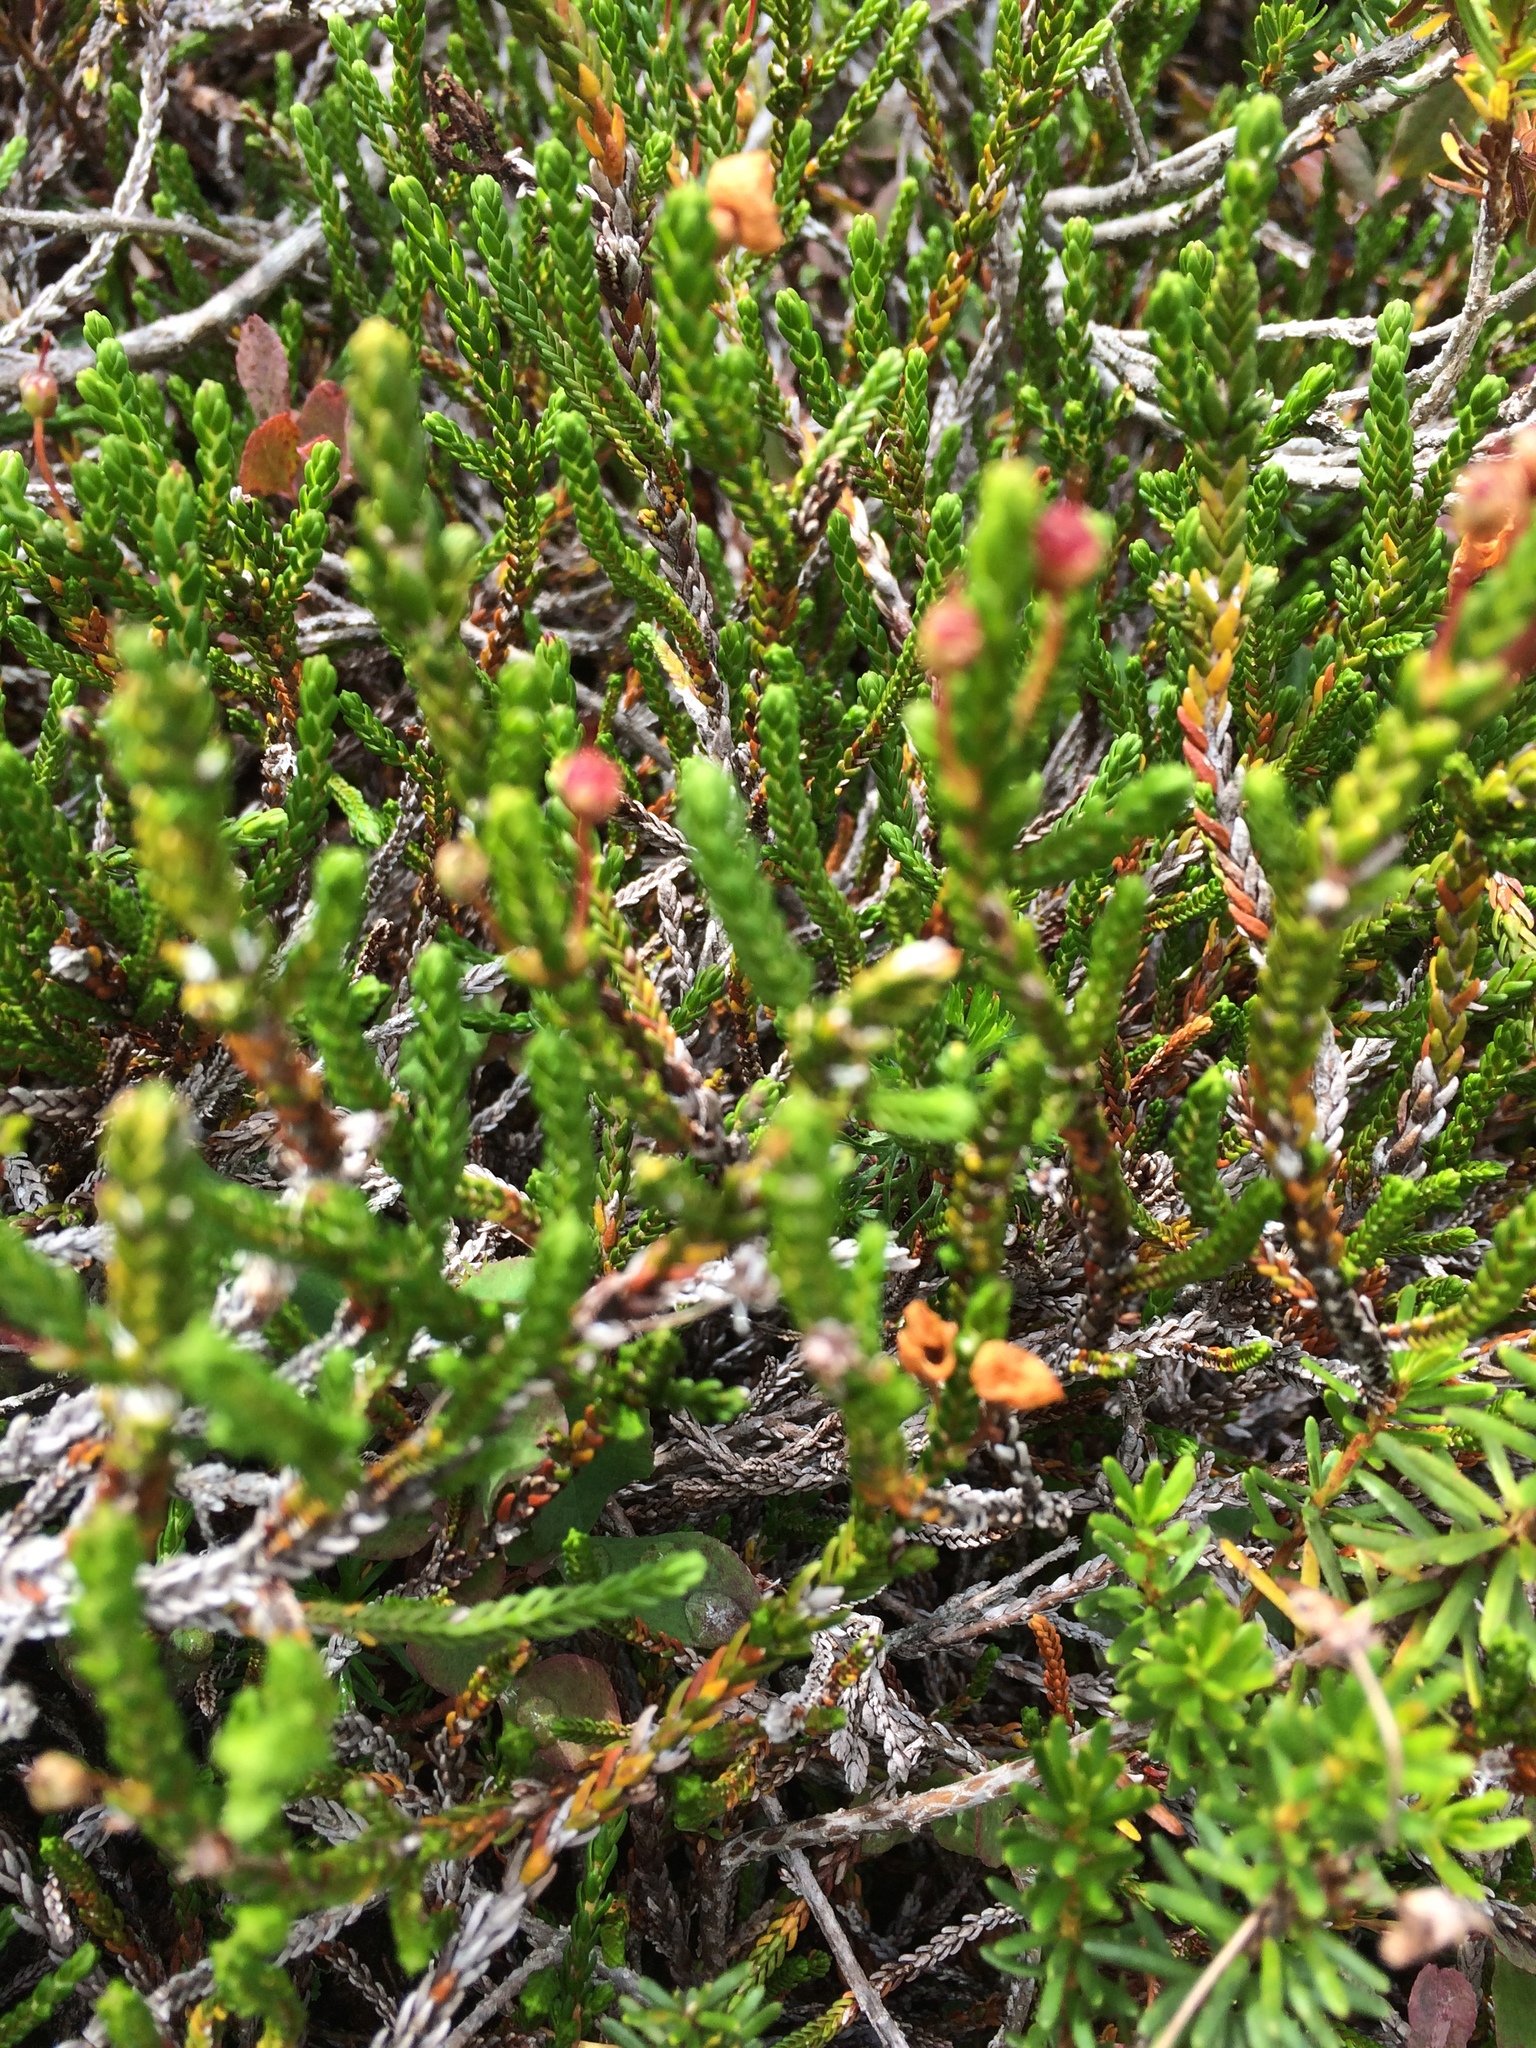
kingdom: Plantae
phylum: Tracheophyta
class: Magnoliopsida
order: Ericales
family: Ericaceae
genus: Cassiope
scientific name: Cassiope mertensiana
